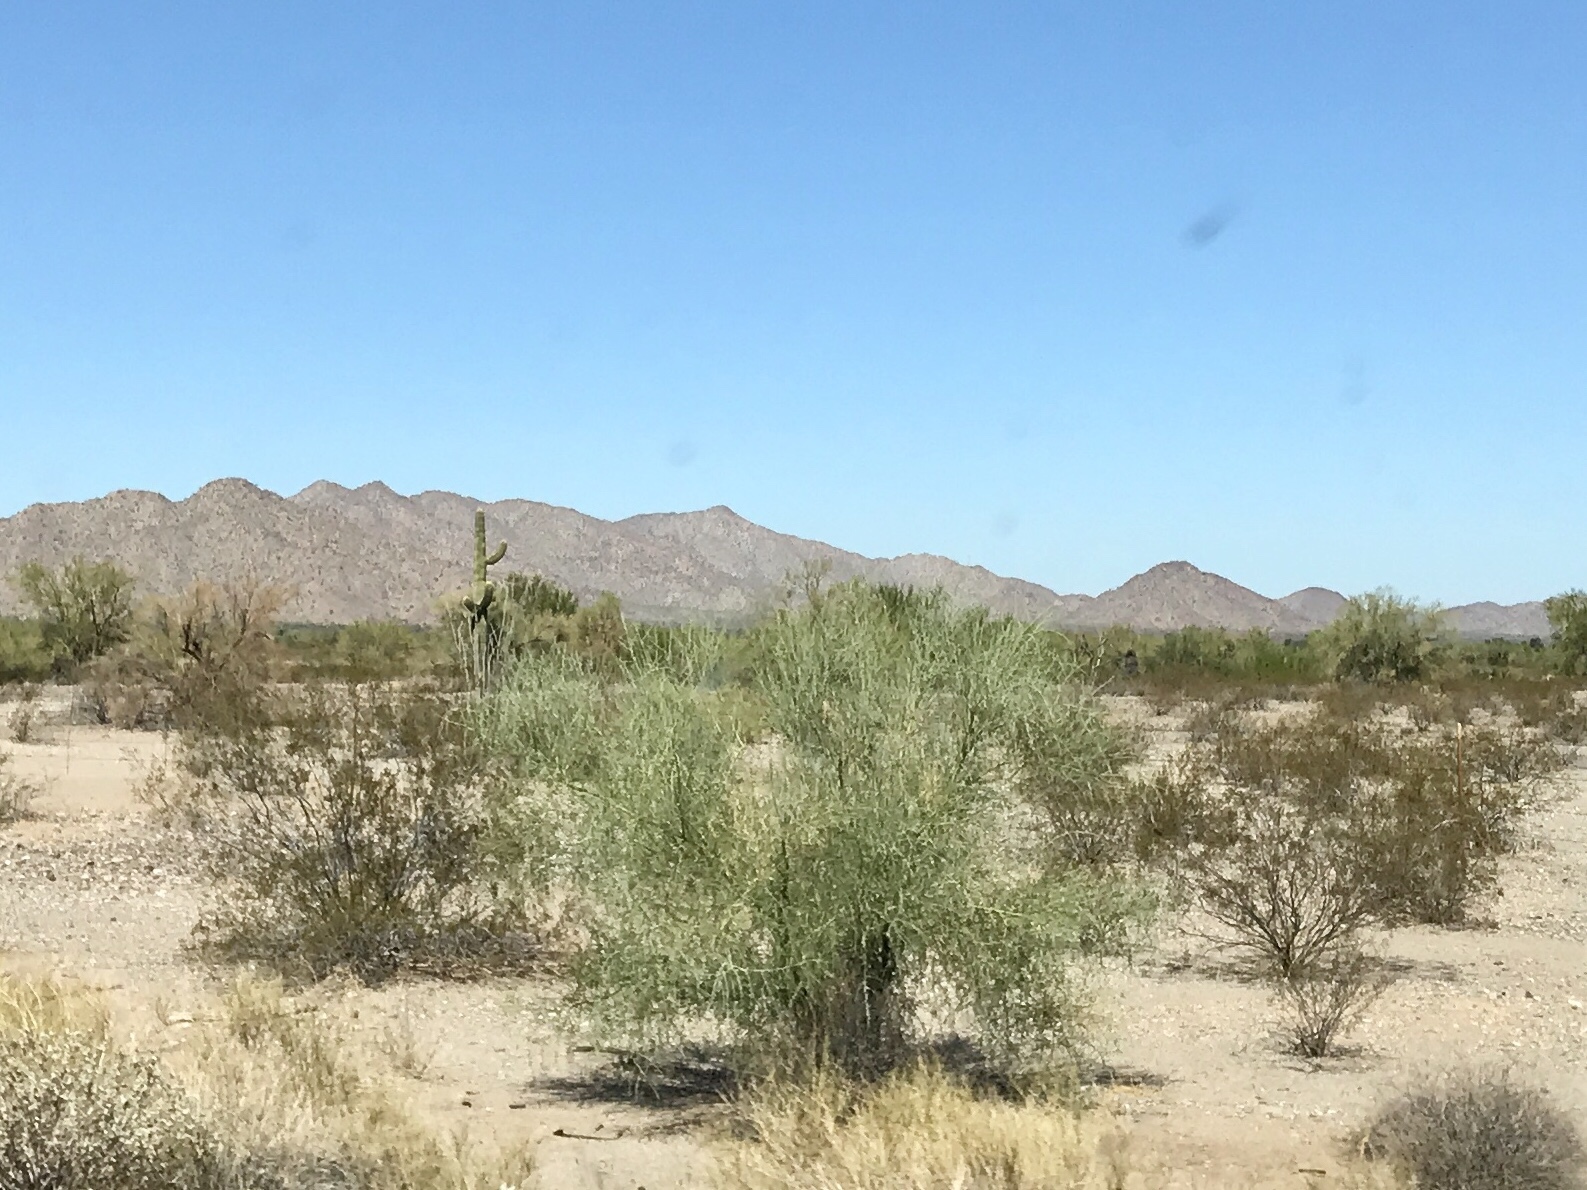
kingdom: Plantae
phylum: Tracheophyta
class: Magnoliopsida
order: Fabales
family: Fabaceae
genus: Parkinsonia
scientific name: Parkinsonia florida
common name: Blue paloverde
